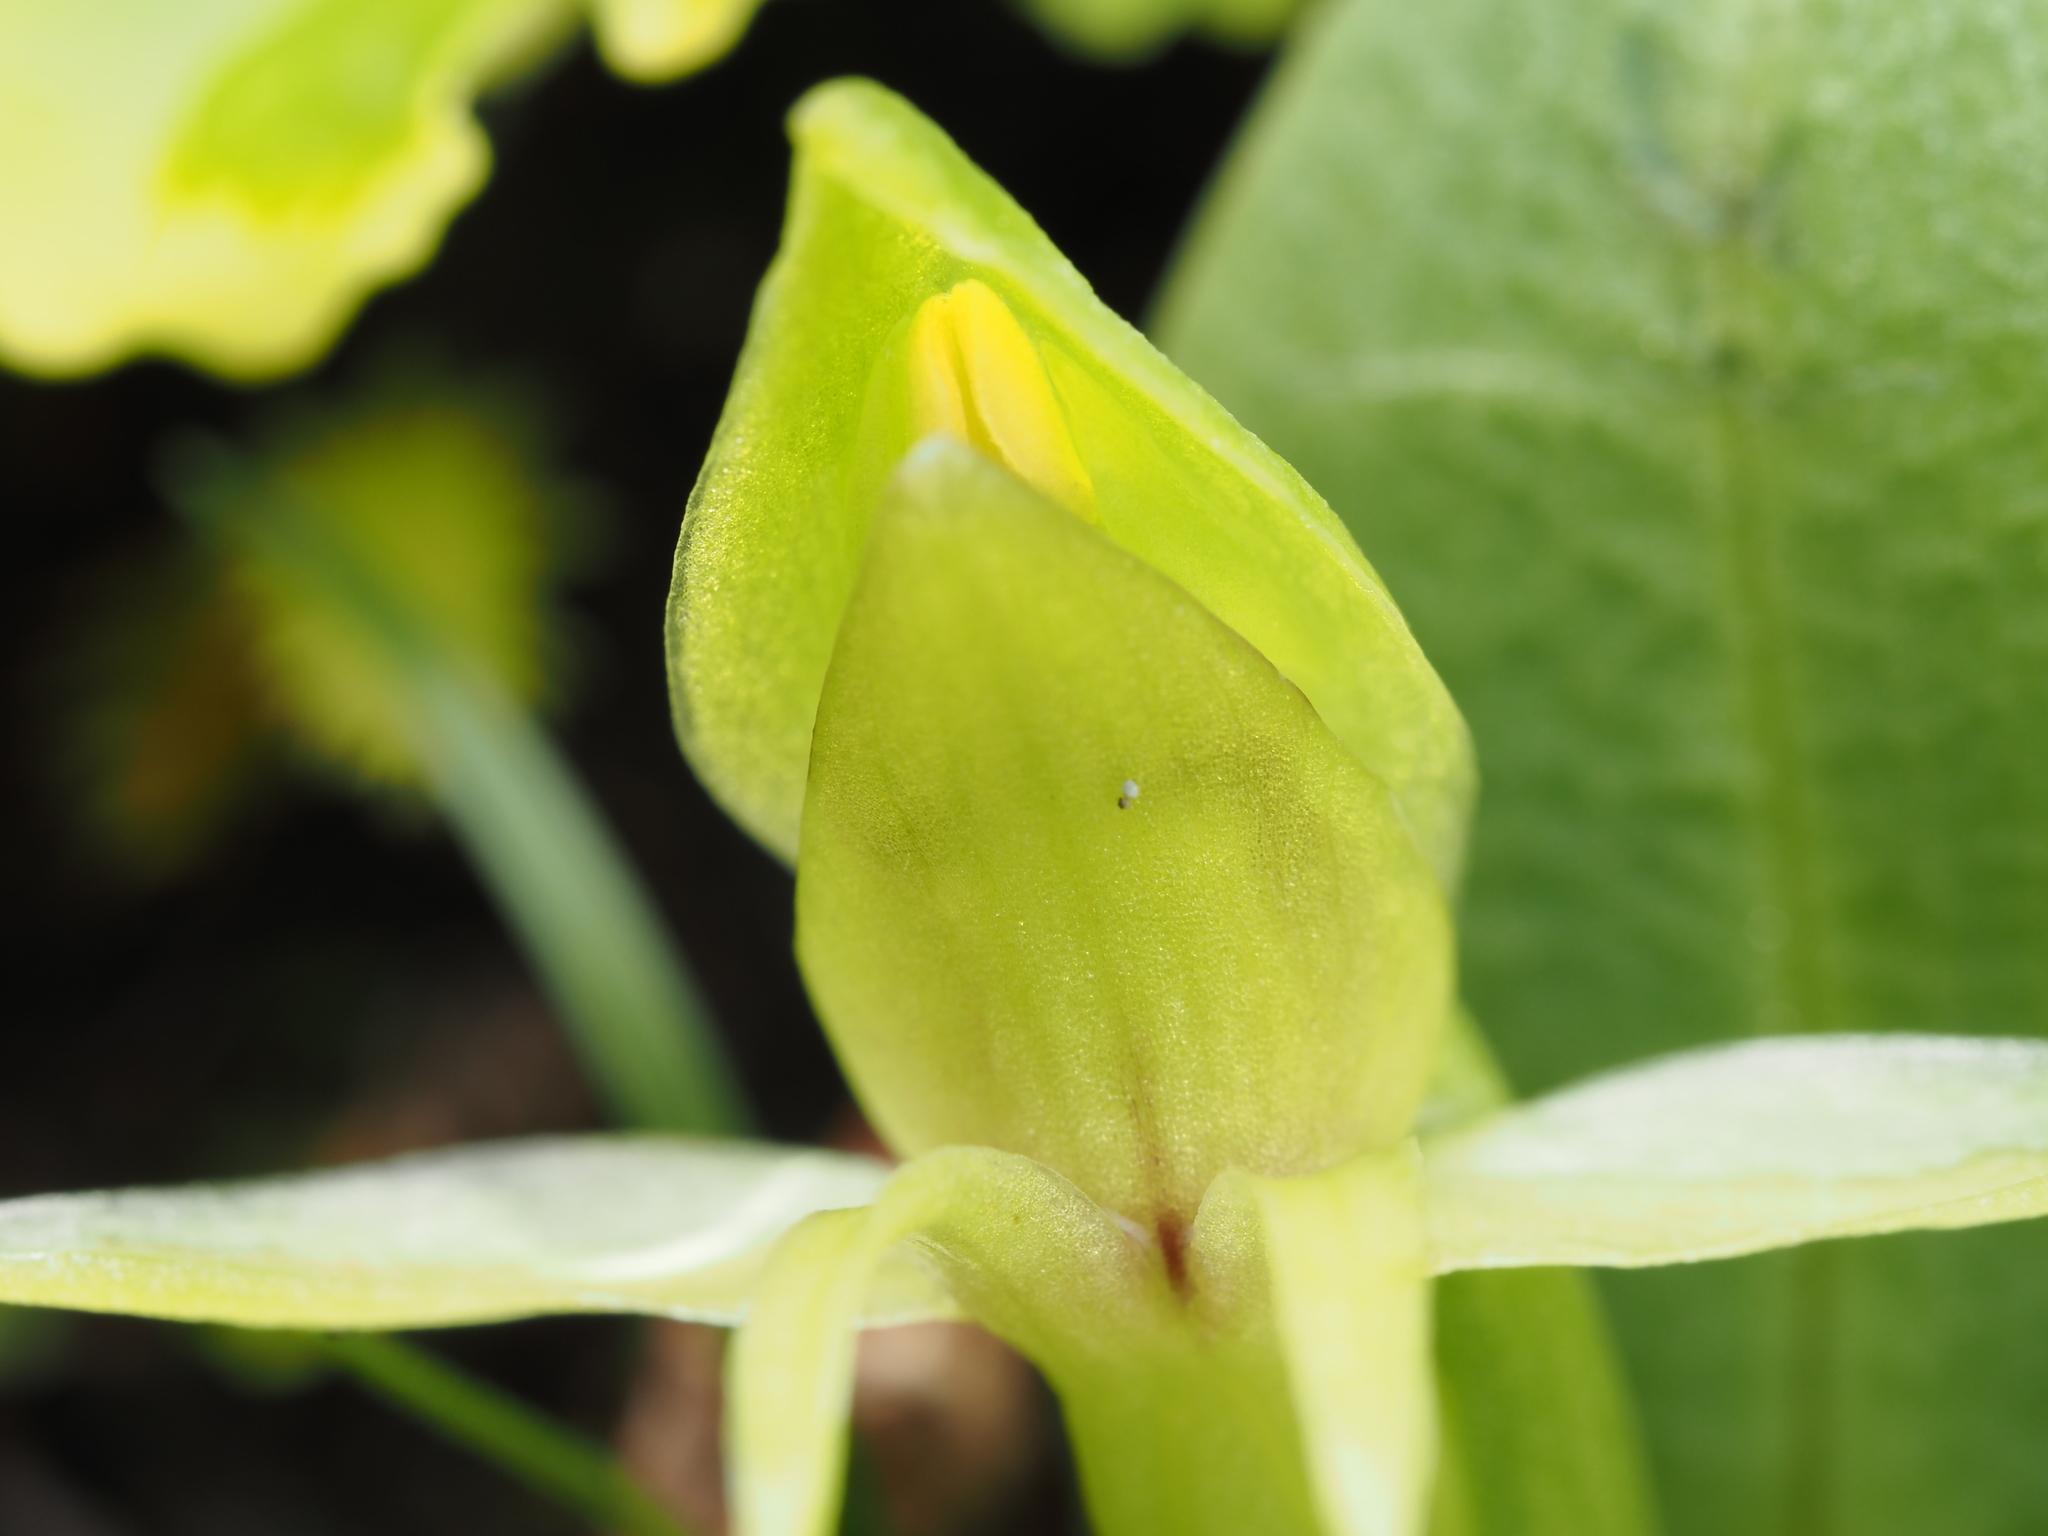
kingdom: Plantae
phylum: Tracheophyta
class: Liliopsida
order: Asparagales
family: Orchidaceae
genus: Chiloglottis
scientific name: Chiloglottis cornuta
